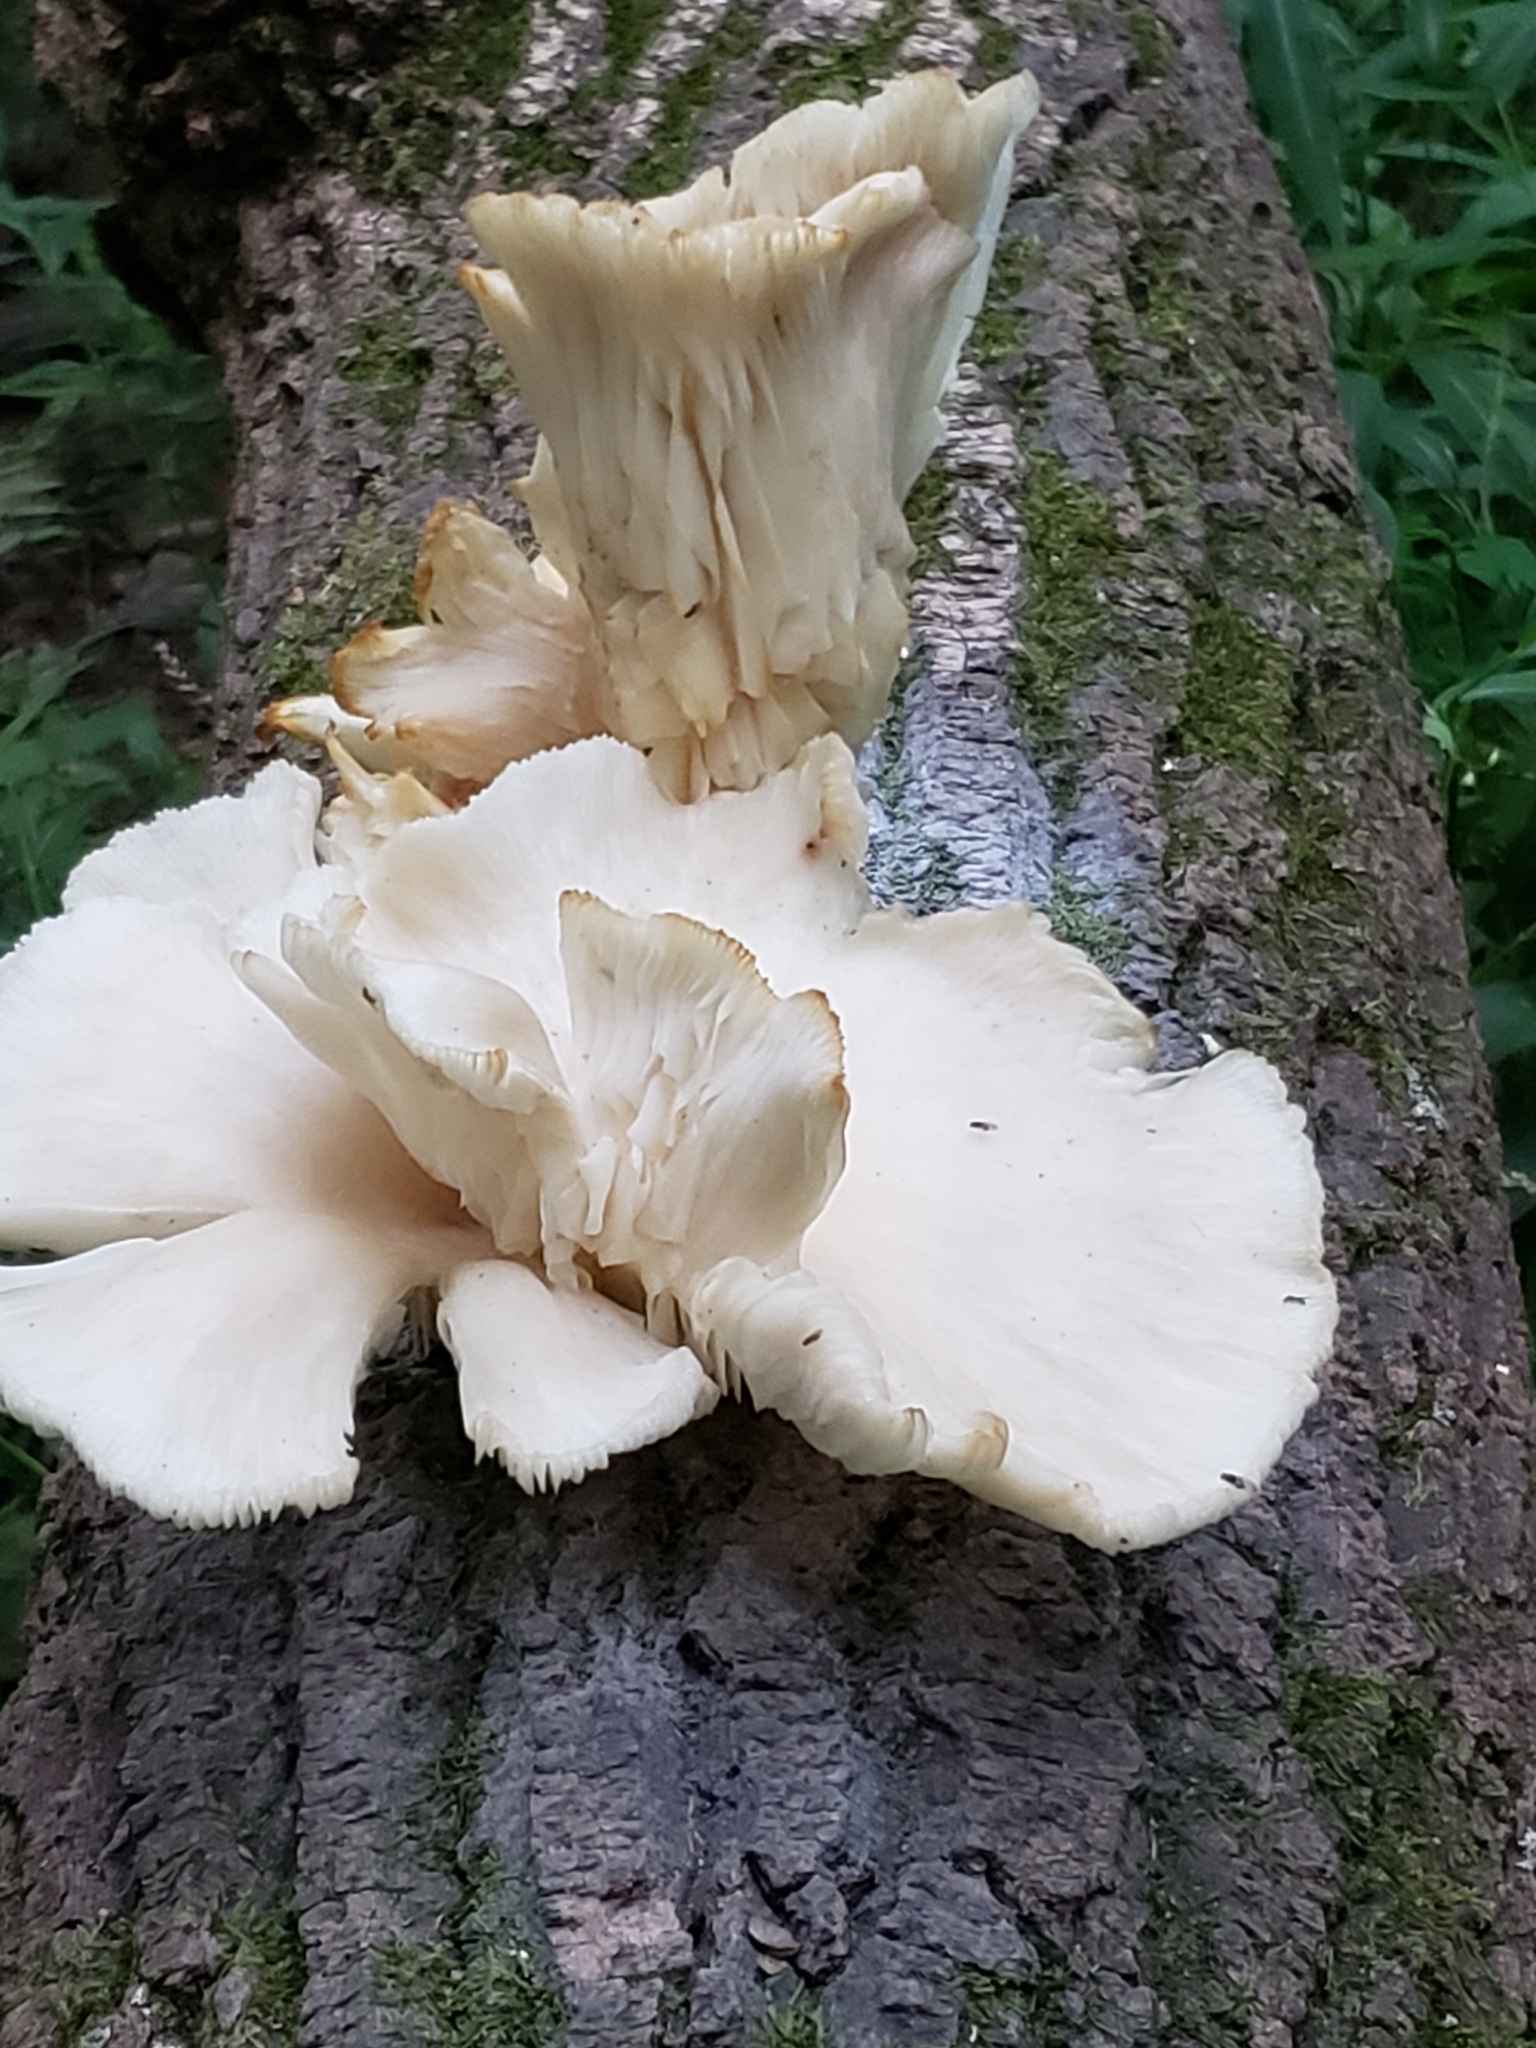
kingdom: Fungi
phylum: Basidiomycota
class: Agaricomycetes
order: Agaricales
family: Pleurotaceae
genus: Pleurotus
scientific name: Pleurotus pulmonarius
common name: Pale oyster
